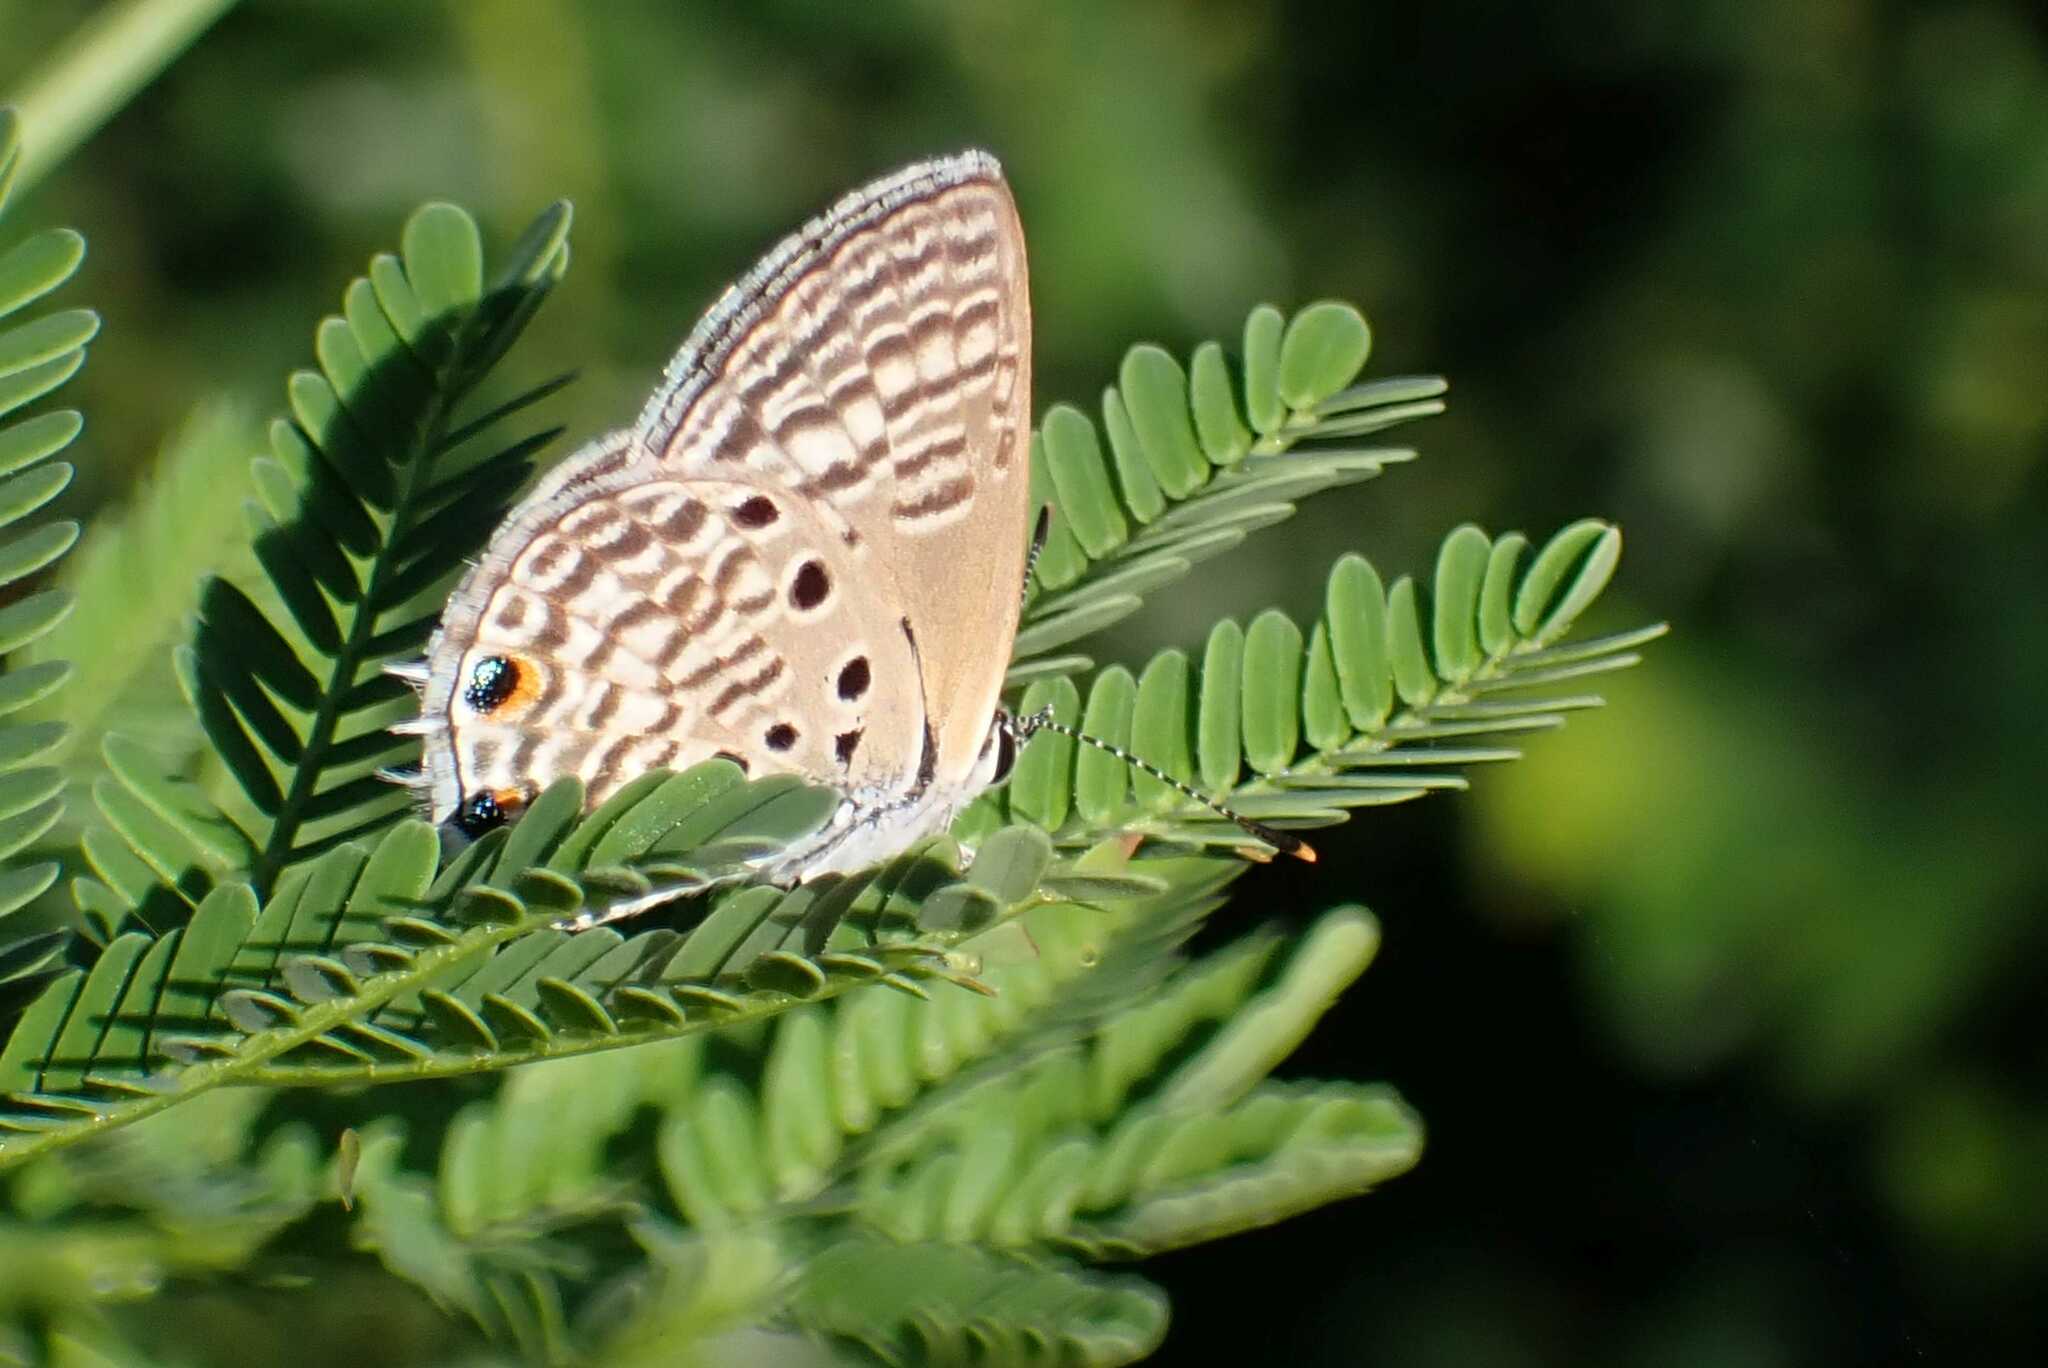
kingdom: Animalia
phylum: Arthropoda
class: Insecta
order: Lepidoptera
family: Lycaenidae
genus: Anthene
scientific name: Anthene amarah
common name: Black-striped hairtail
